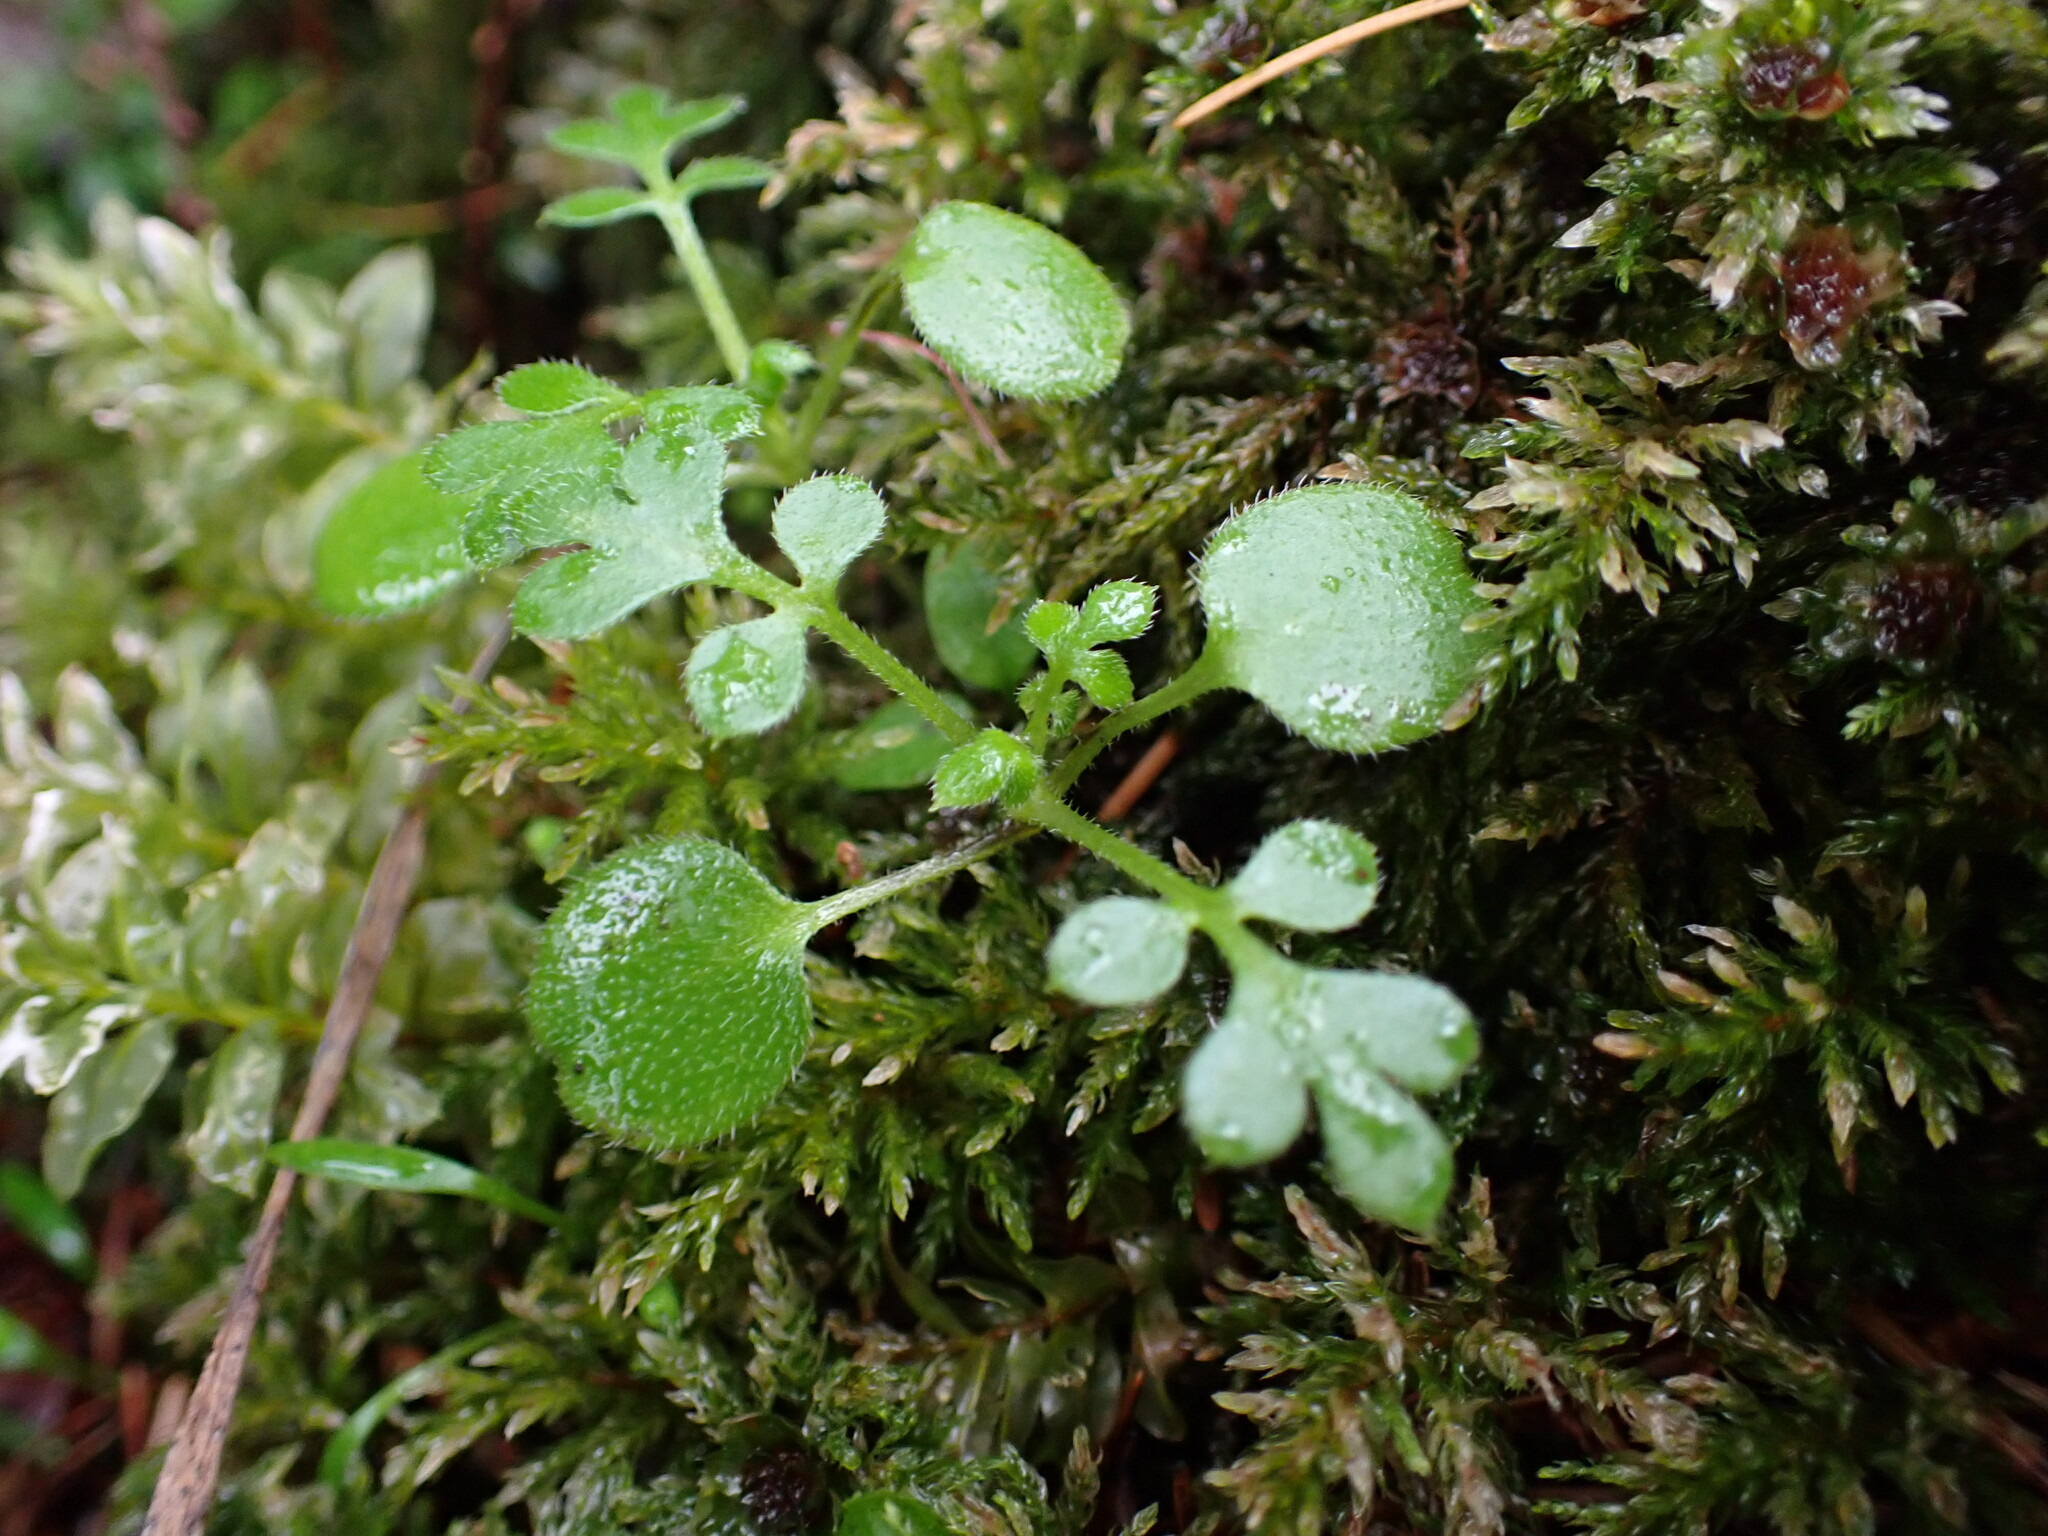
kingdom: Plantae
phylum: Tracheophyta
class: Magnoliopsida
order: Boraginales
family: Hydrophyllaceae
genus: Nemophila
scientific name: Nemophila parviflora
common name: Small-flowered baby-blue-eyes
